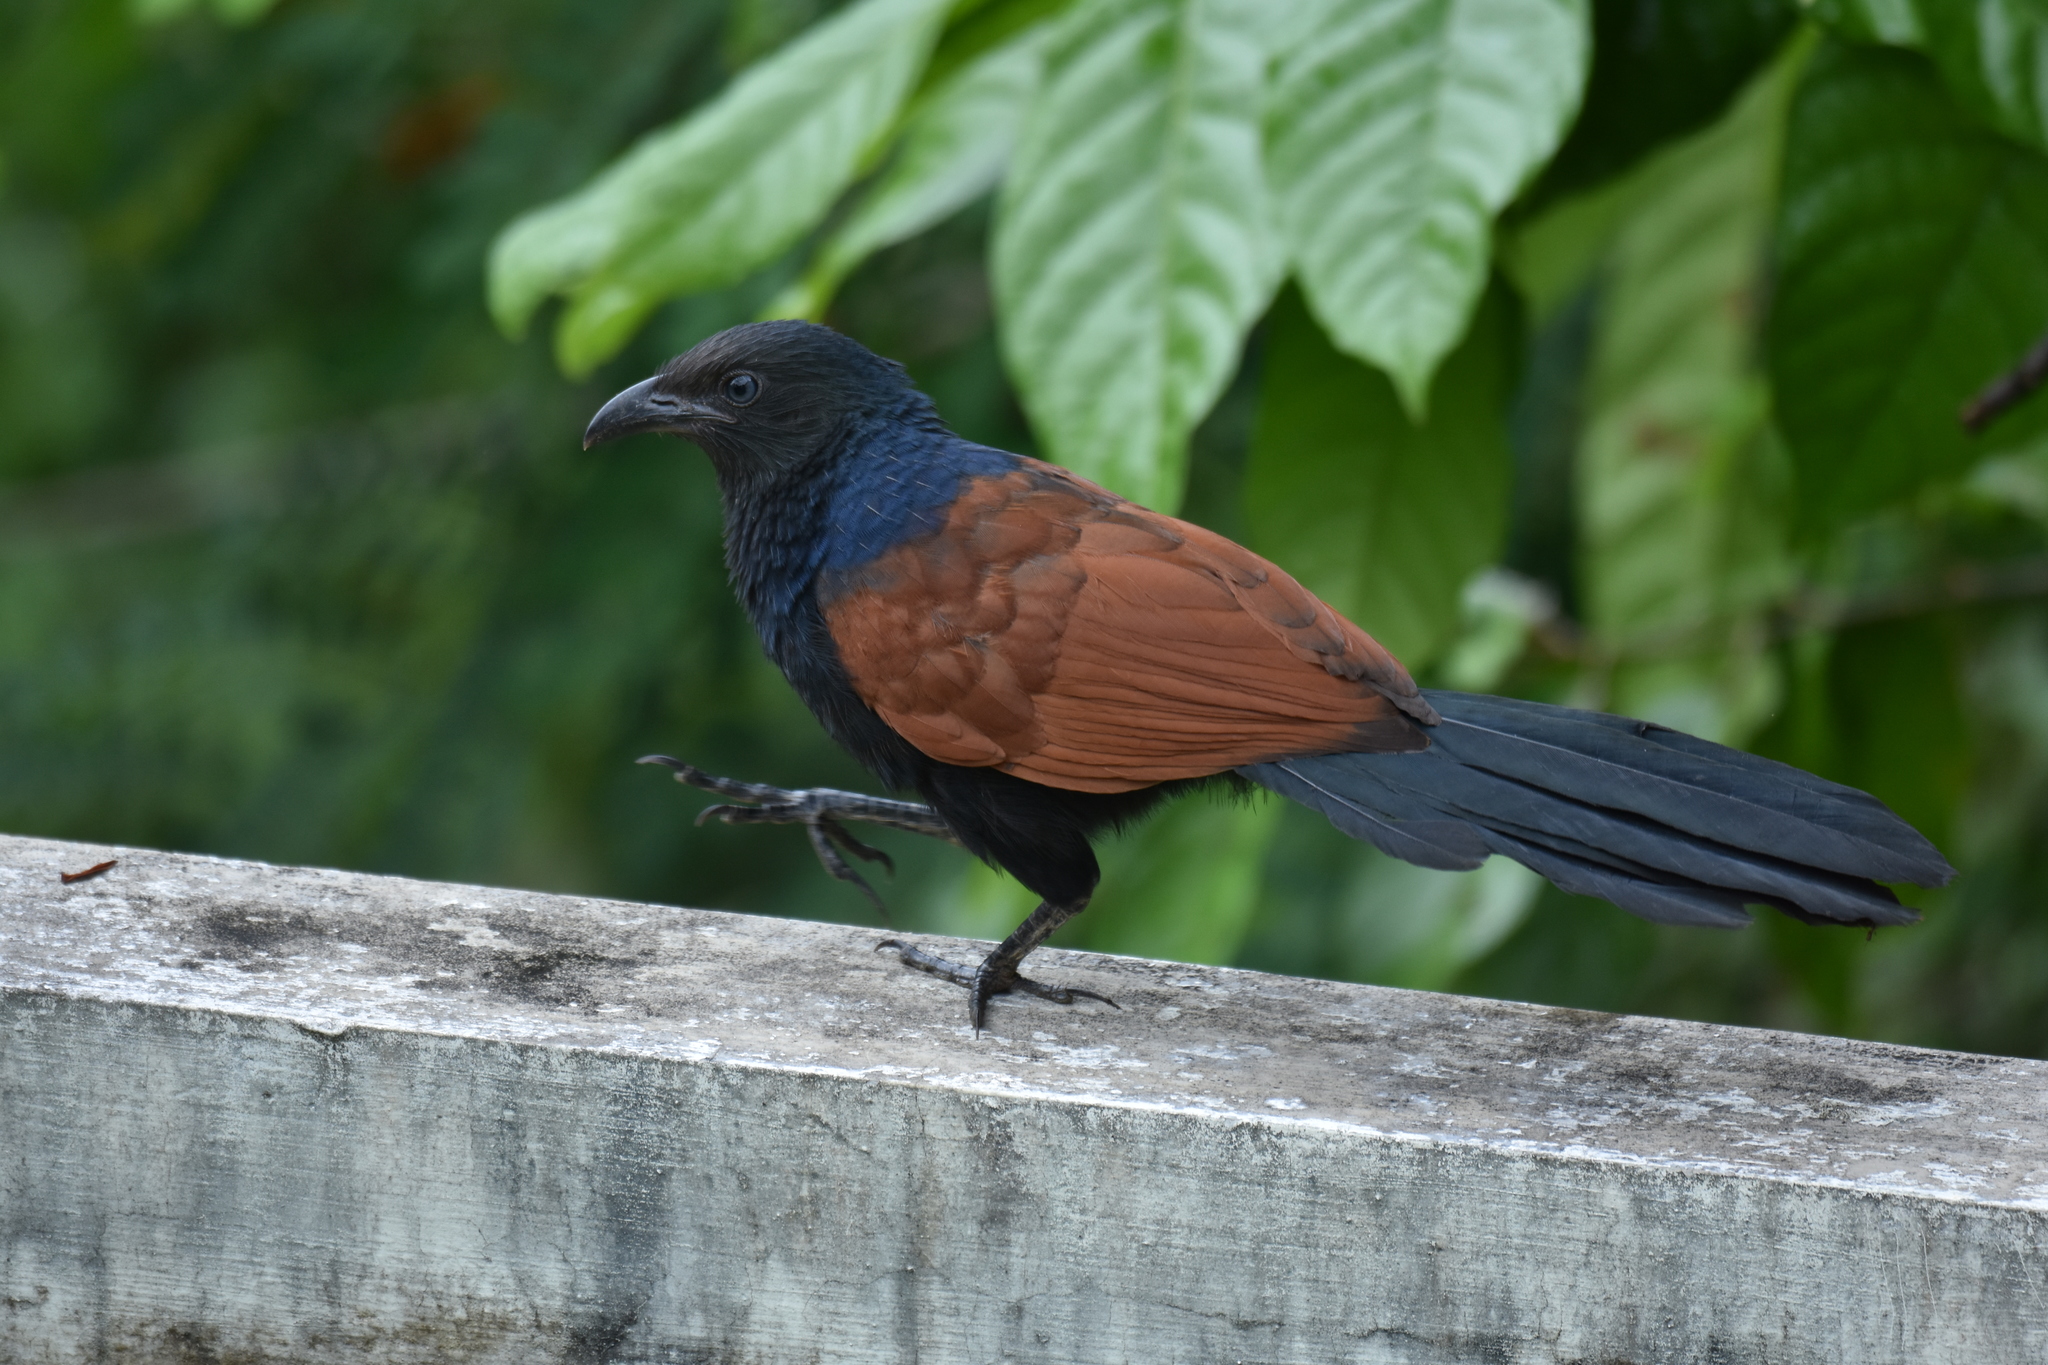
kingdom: Animalia
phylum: Chordata
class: Aves
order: Cuculiformes
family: Cuculidae
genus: Centropus
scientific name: Centropus sinensis
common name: Greater coucal
